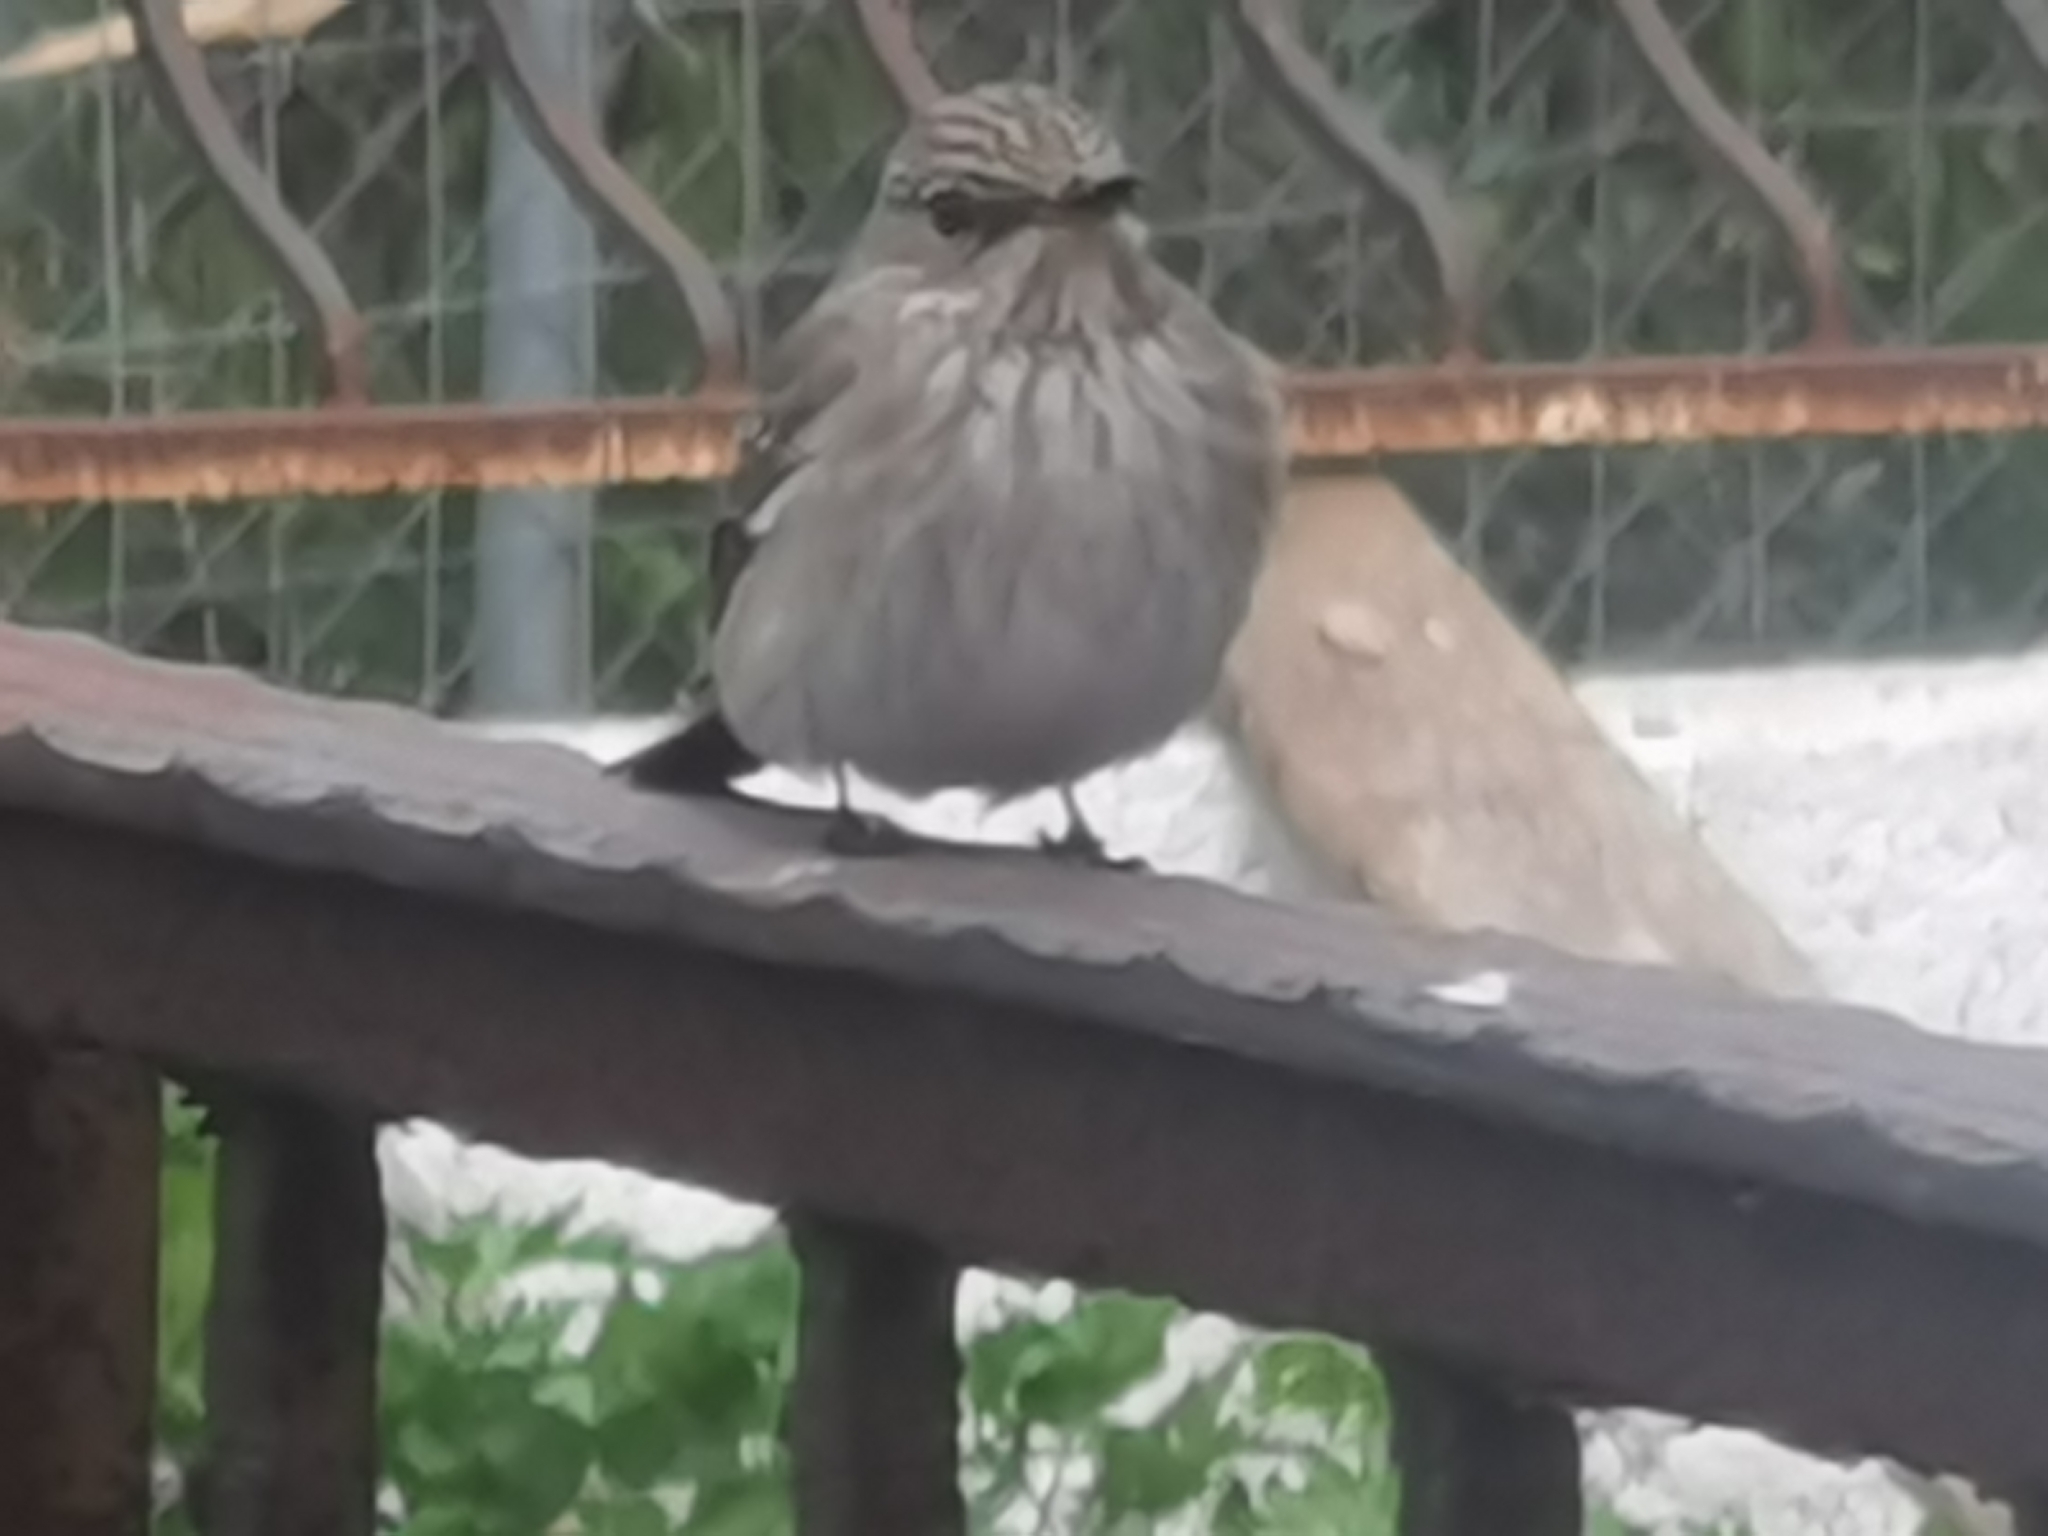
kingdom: Animalia
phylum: Chordata
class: Aves
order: Passeriformes
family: Muscicapidae
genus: Muscicapa
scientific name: Muscicapa striata
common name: Spotted flycatcher
